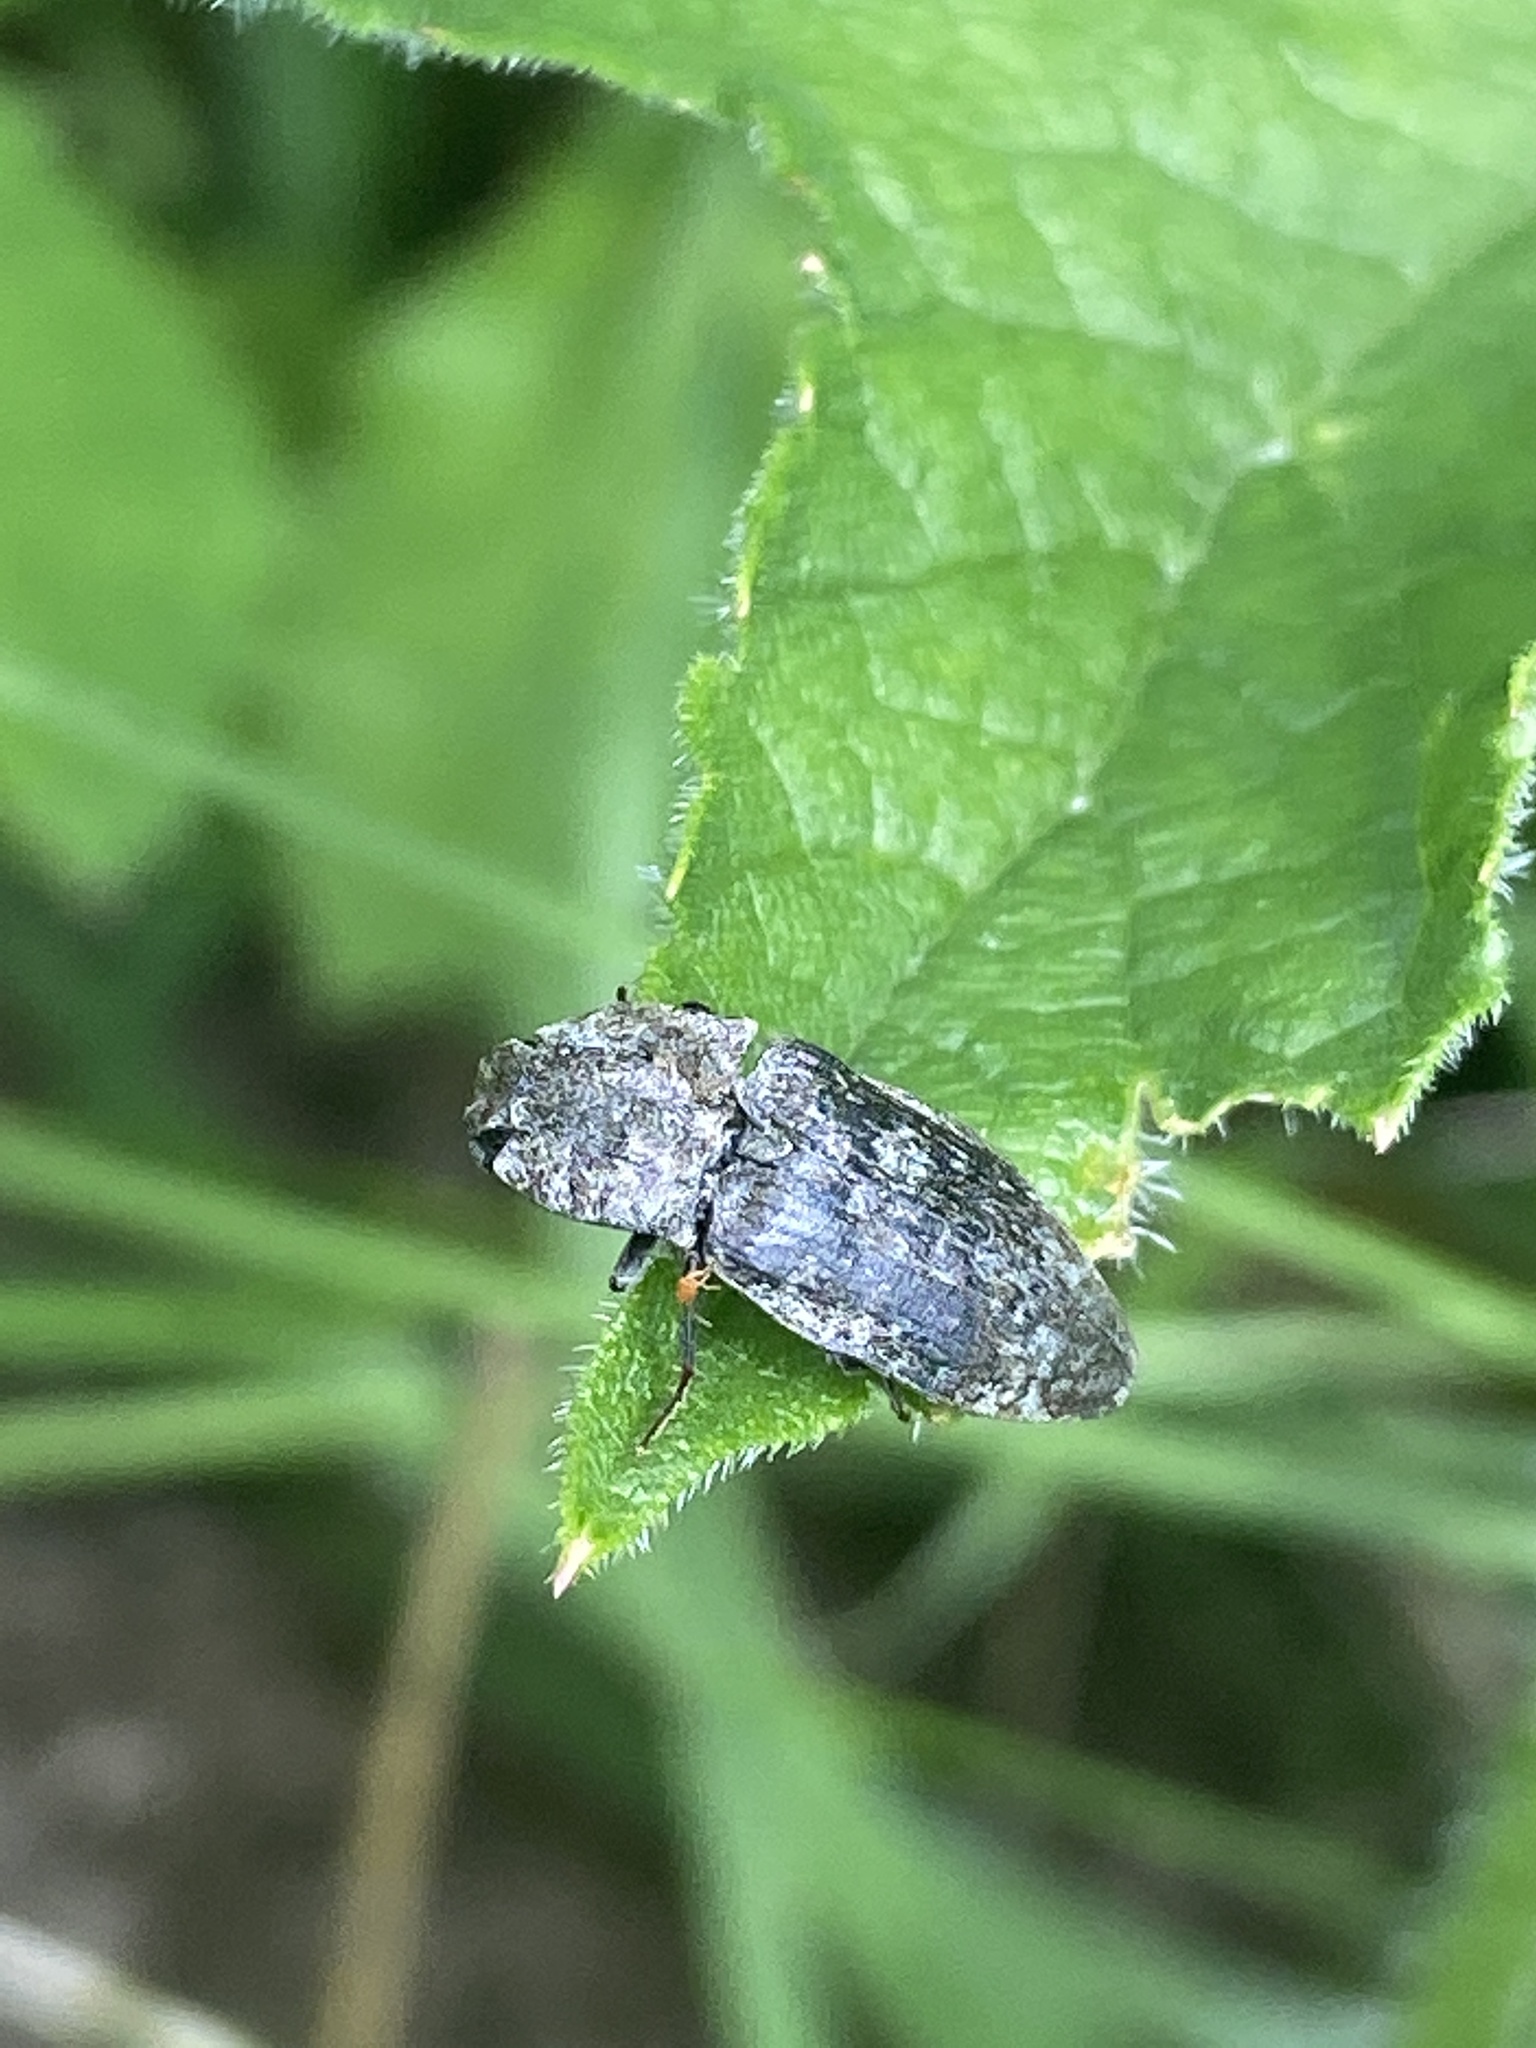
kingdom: Animalia
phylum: Arthropoda
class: Insecta
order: Coleoptera
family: Elateridae
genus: Agrypnus
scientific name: Agrypnus murinus
